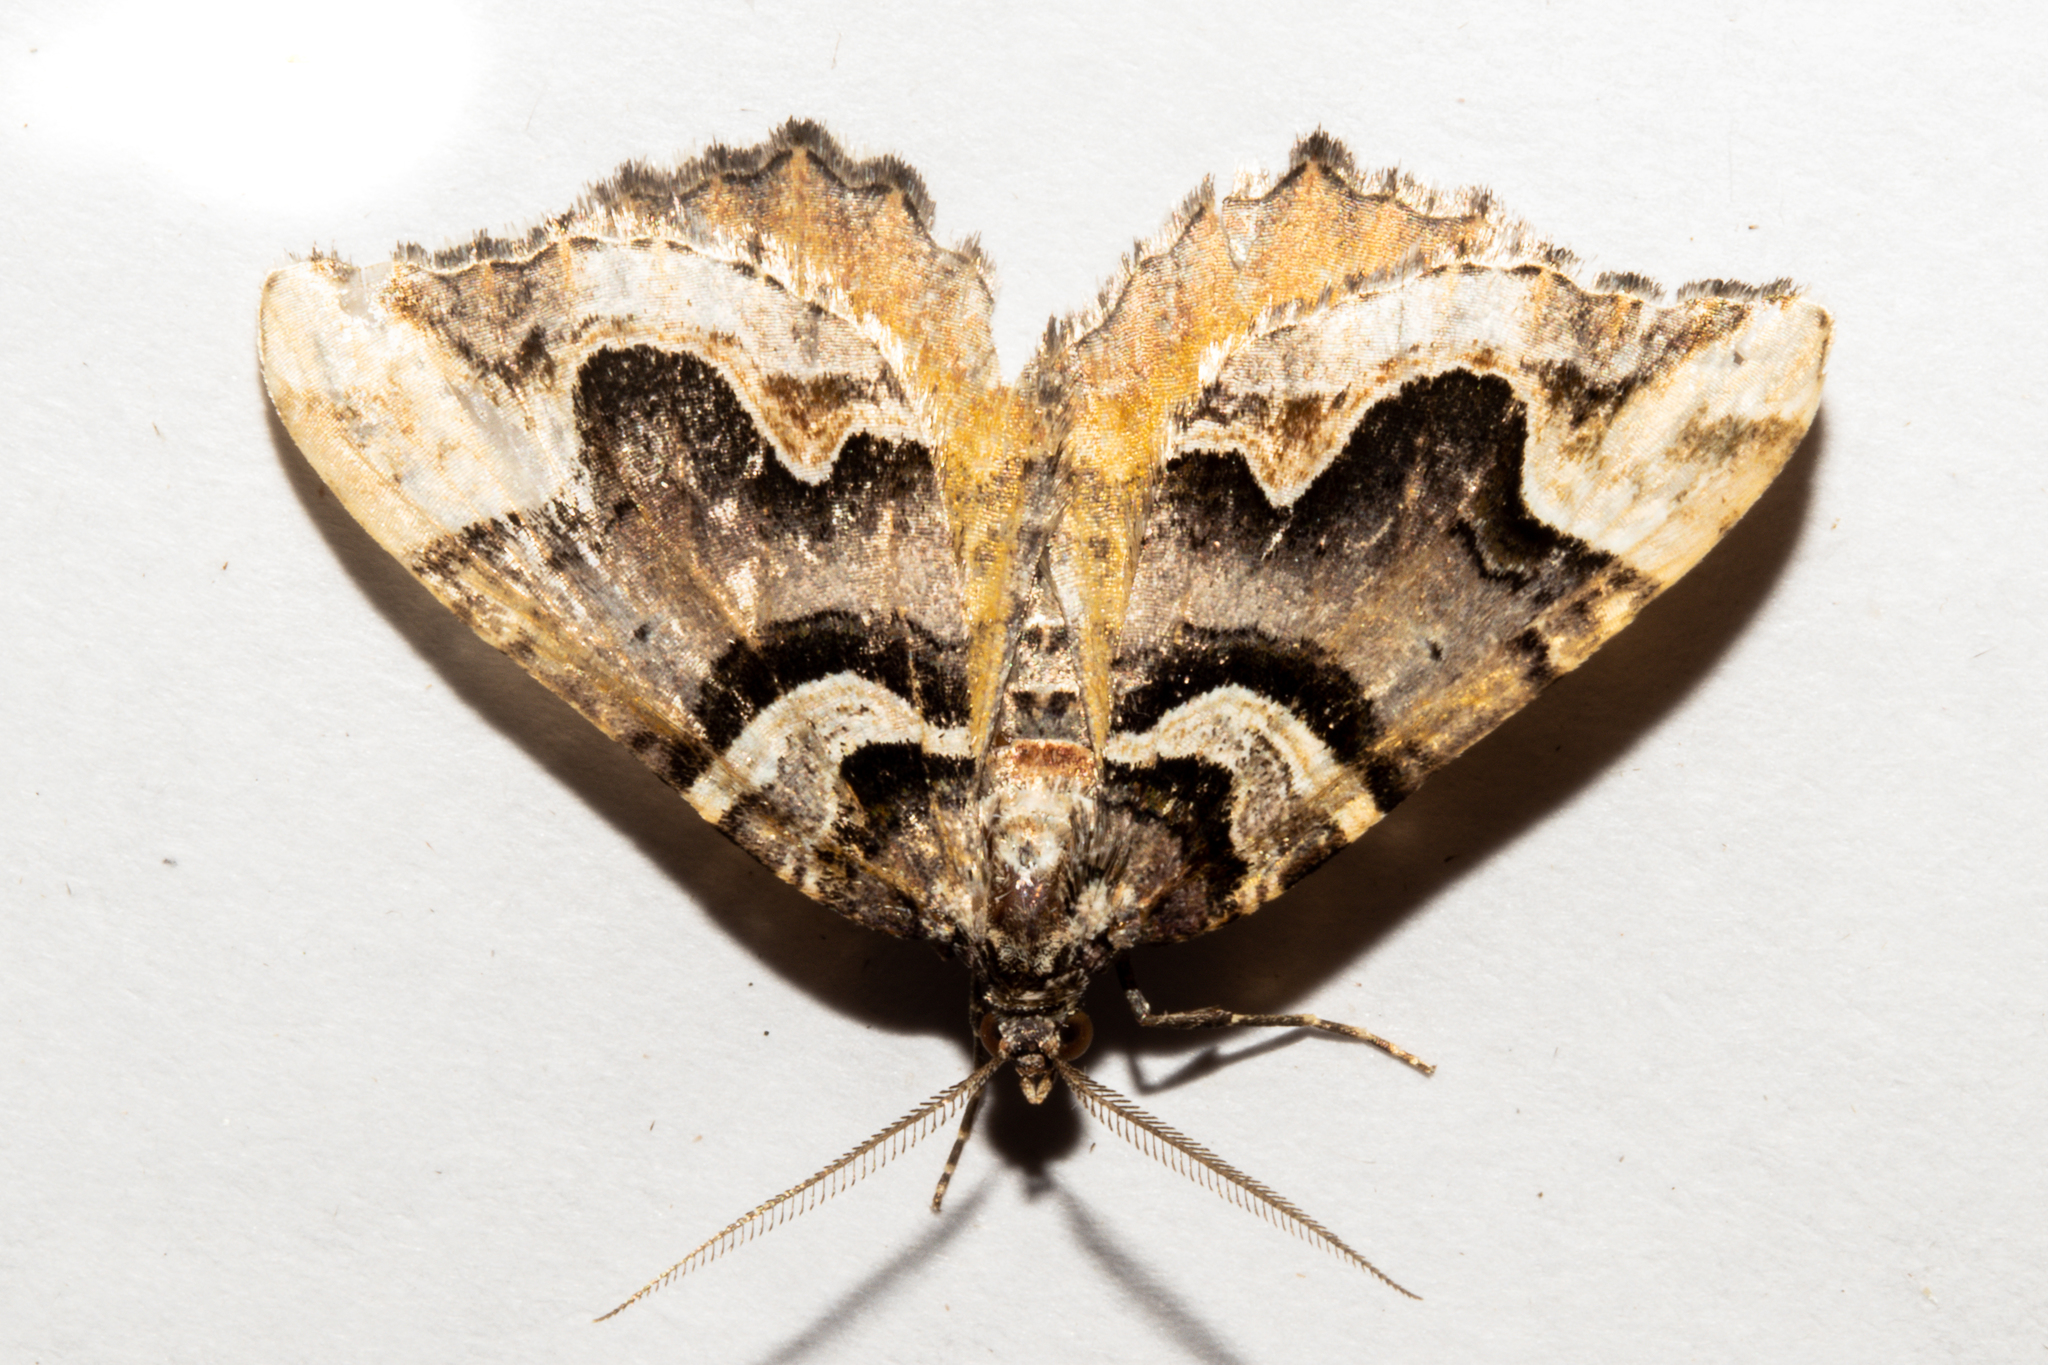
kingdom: Animalia
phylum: Arthropoda
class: Insecta
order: Lepidoptera
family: Geometridae
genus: Asaphodes
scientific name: Asaphodes chlamydota
